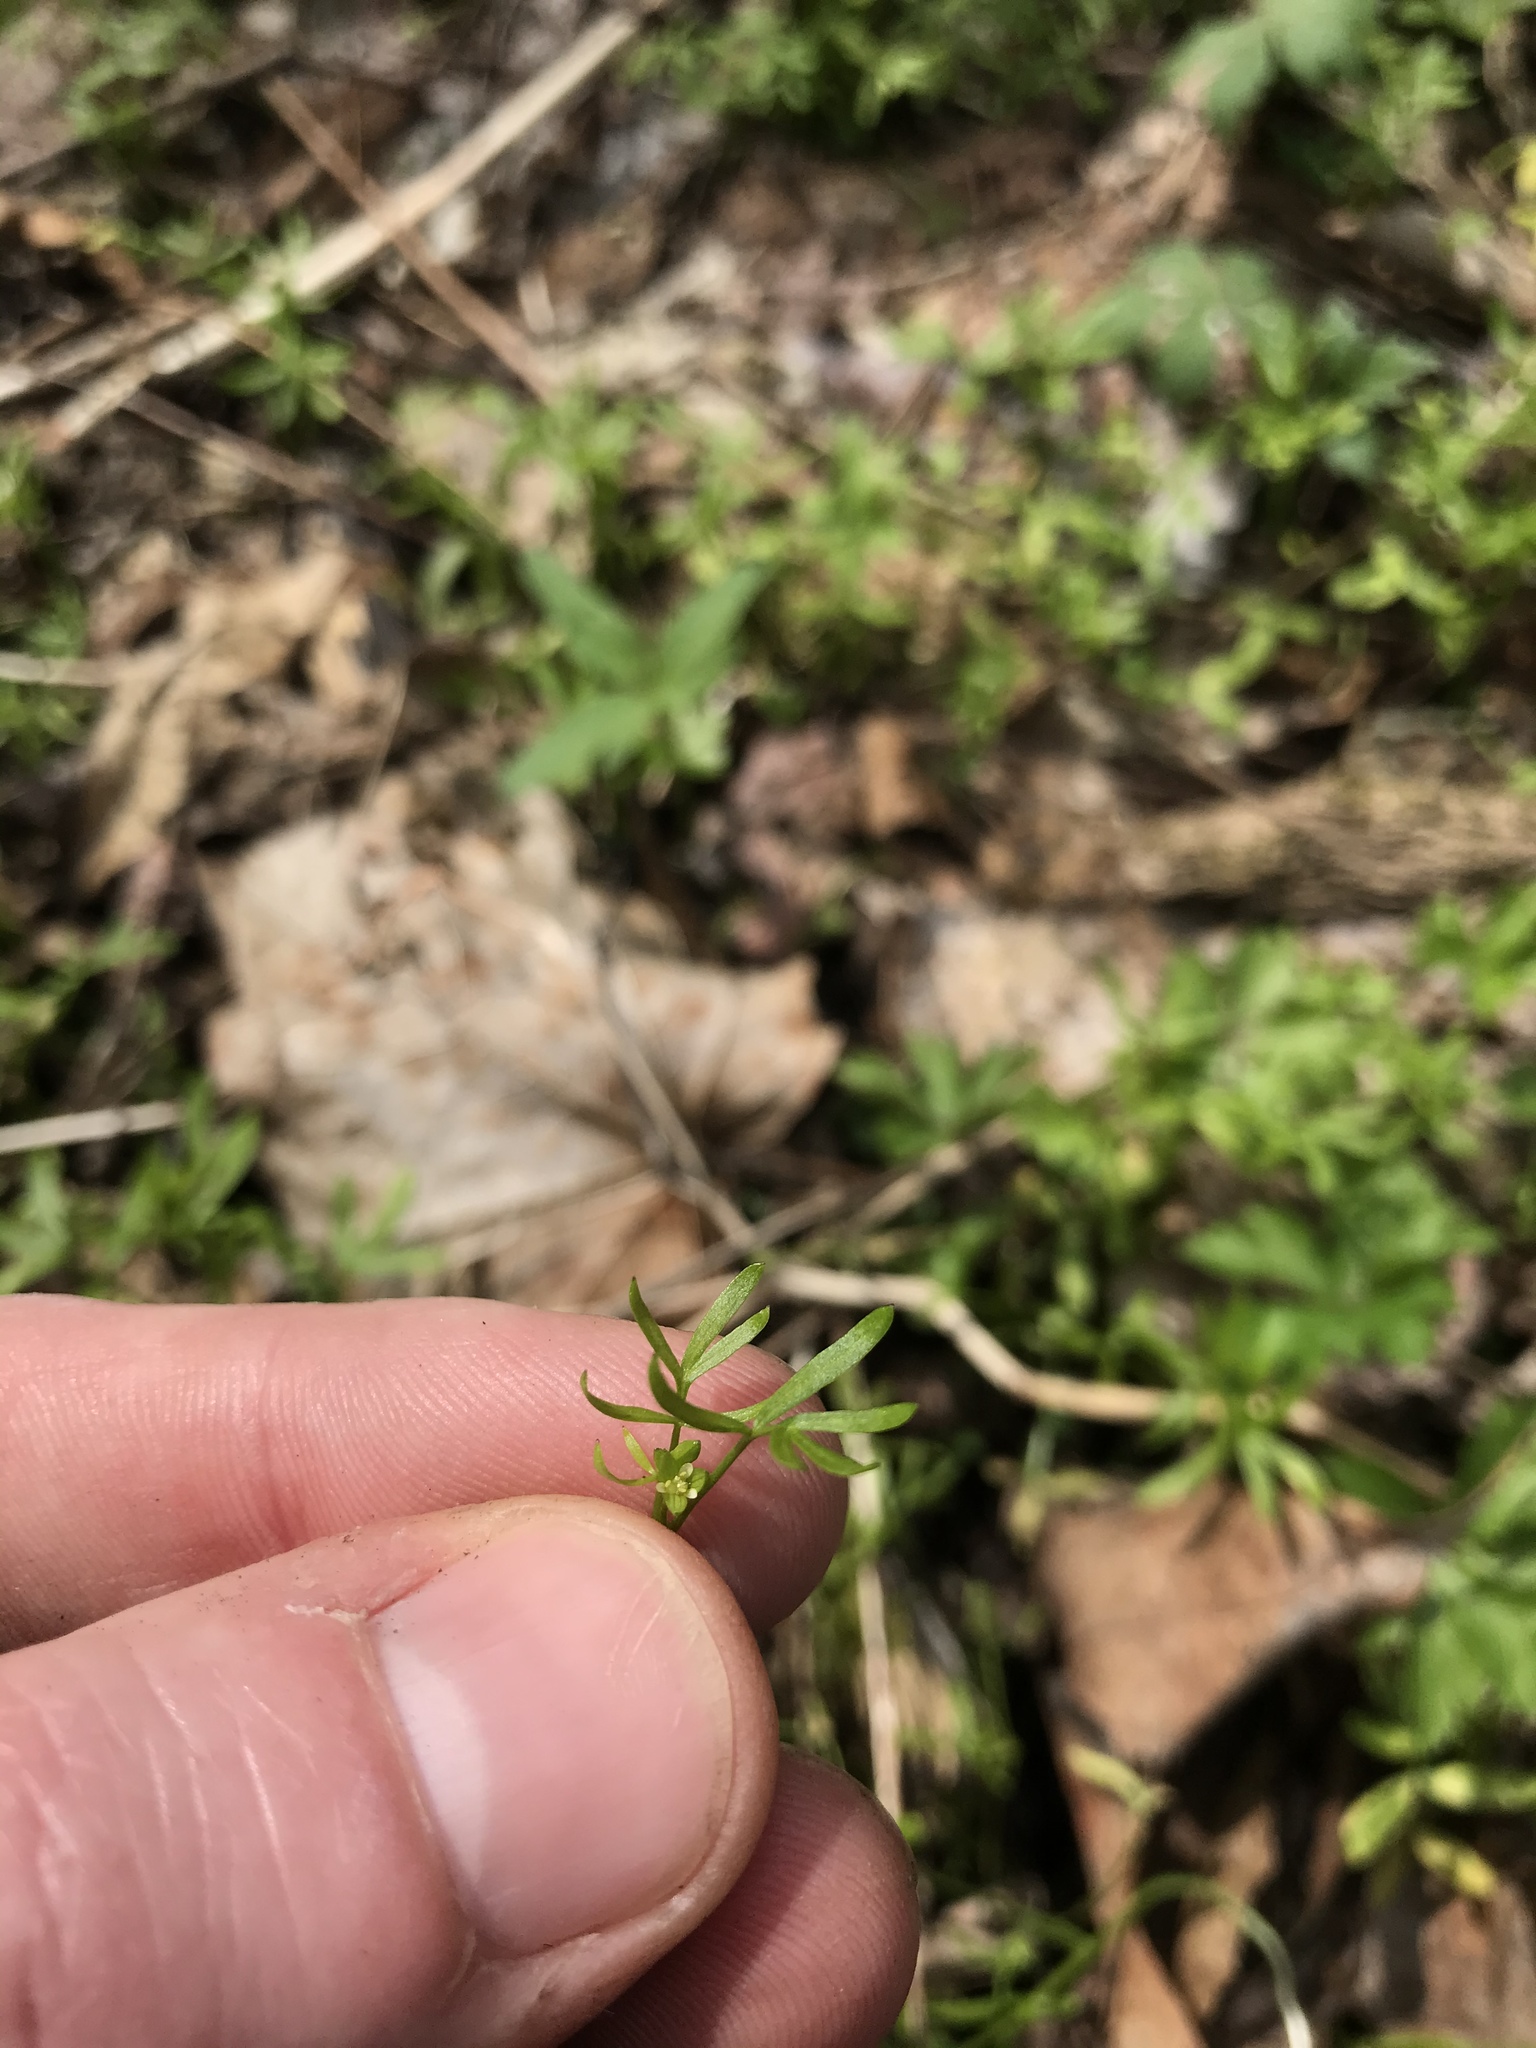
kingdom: Plantae
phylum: Tracheophyta
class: Magnoliopsida
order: Brassicales
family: Limnanthaceae
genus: Floerkea
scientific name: Floerkea proserpinacoides
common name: False mermaid
